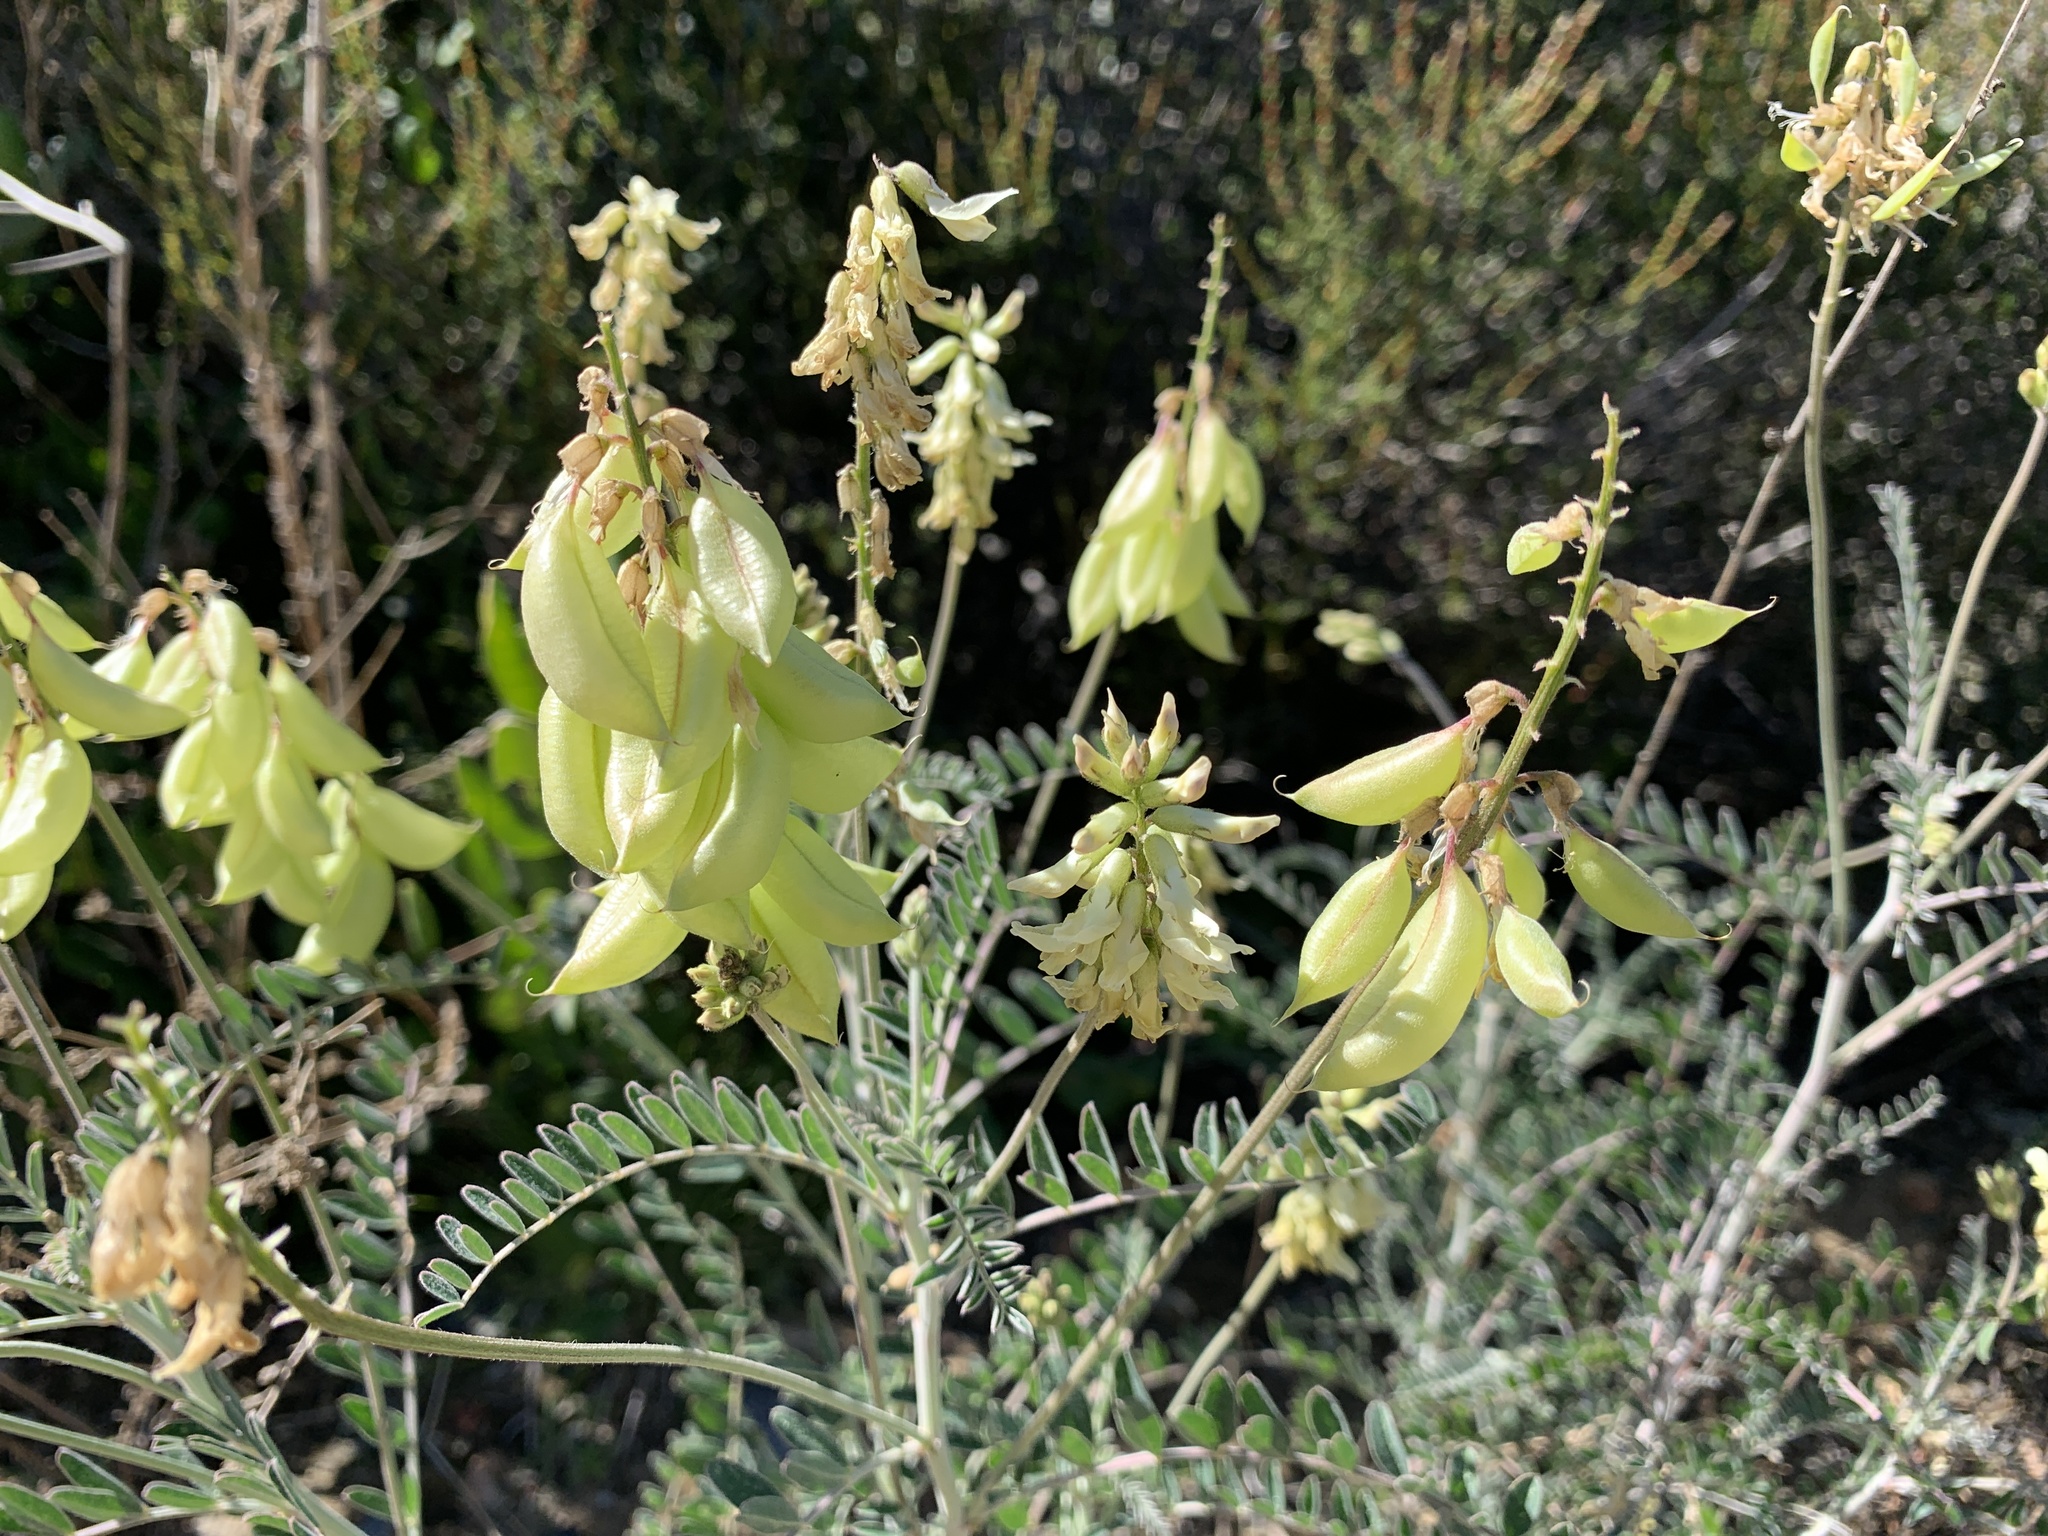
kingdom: Plantae
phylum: Tracheophyta
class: Magnoliopsida
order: Fabales
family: Fabaceae
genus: Astragalus
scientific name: Astragalus trichopodus
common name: Santa barbara milk-vetch
